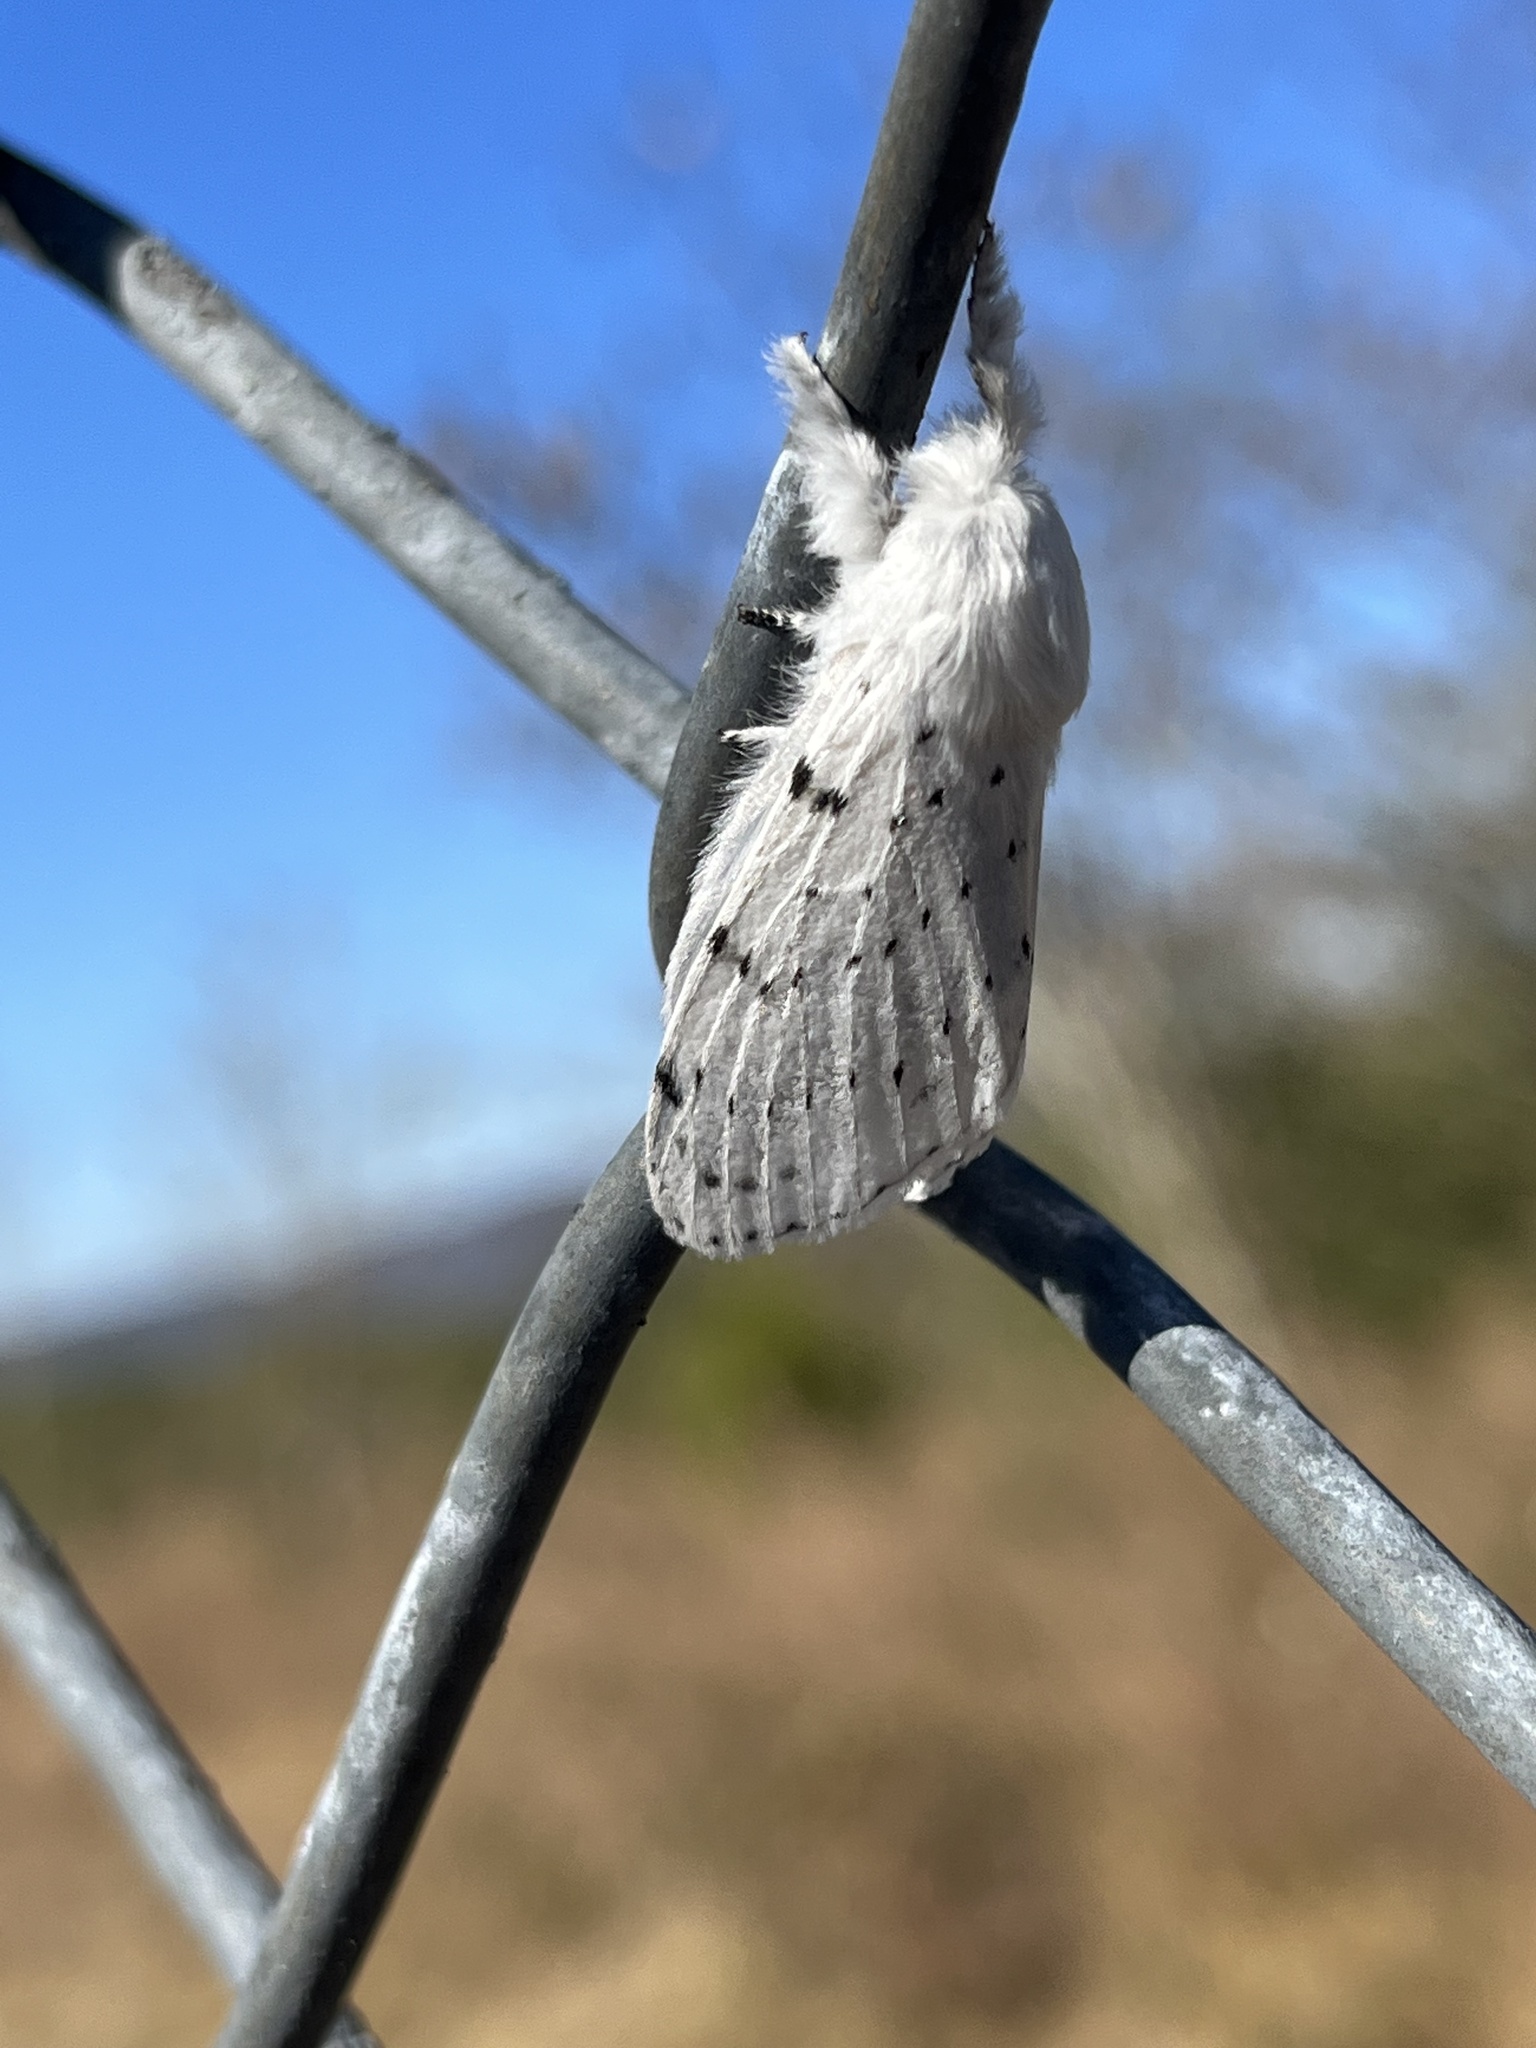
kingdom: Animalia
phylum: Arthropoda
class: Insecta
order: Lepidoptera
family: Lasiocampidae
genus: Artace
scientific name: Artace cribrarius
